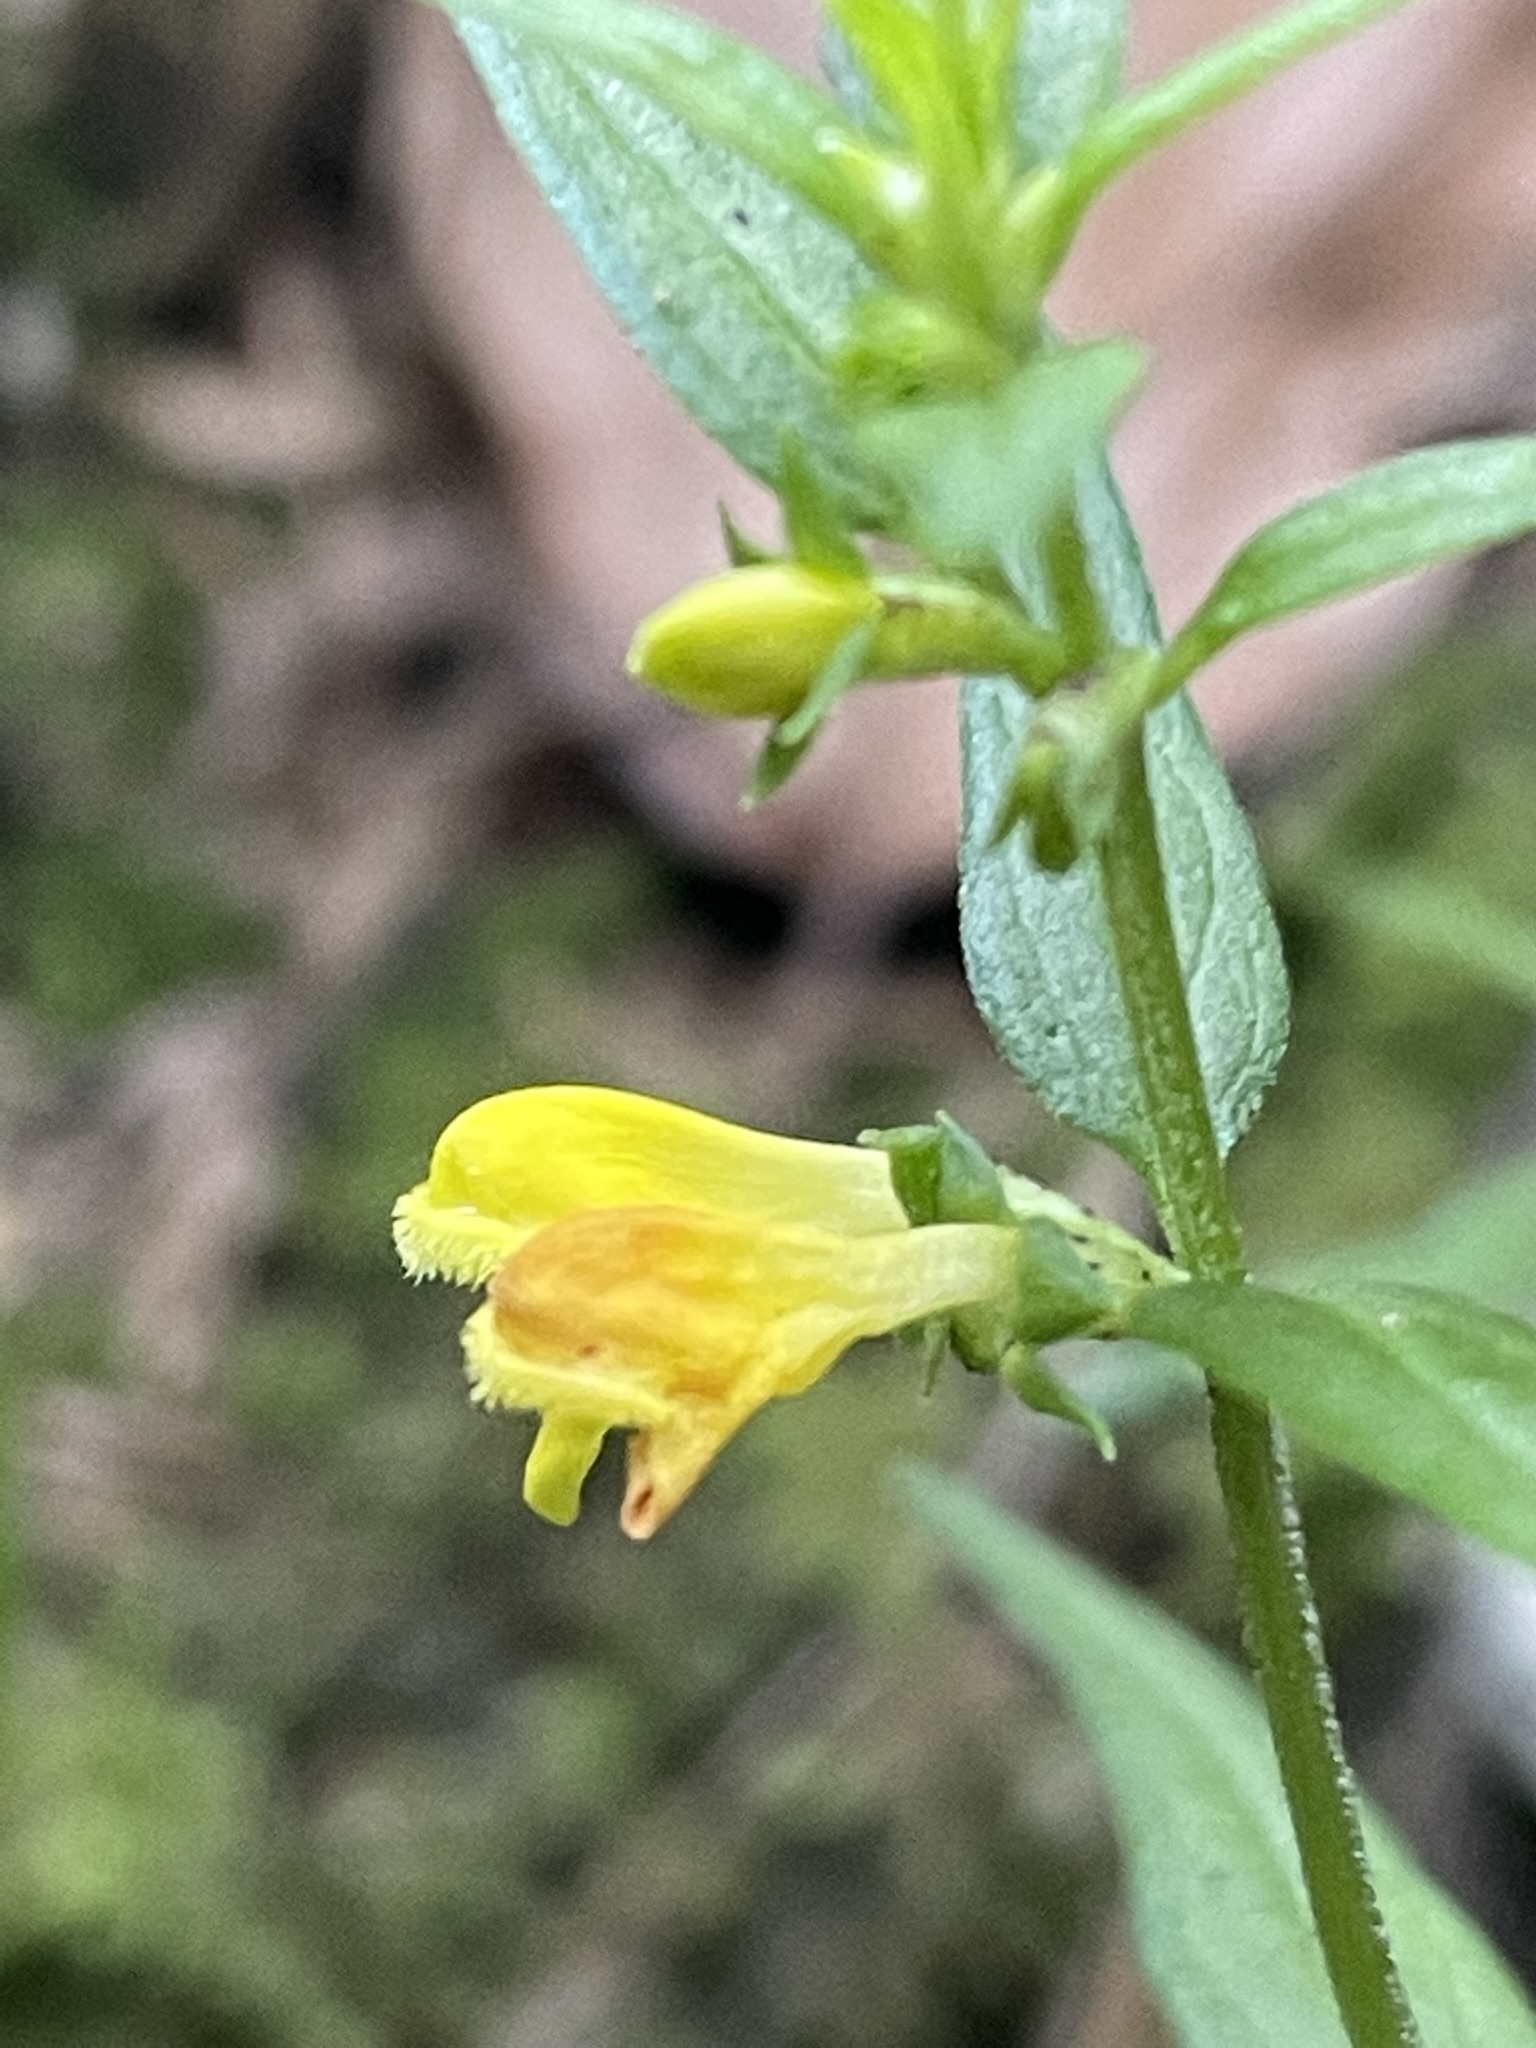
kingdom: Plantae
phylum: Tracheophyta
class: Magnoliopsida
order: Lamiales
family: Orobanchaceae
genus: Melampyrum
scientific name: Melampyrum sylvaticum
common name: Small cow-wheat
